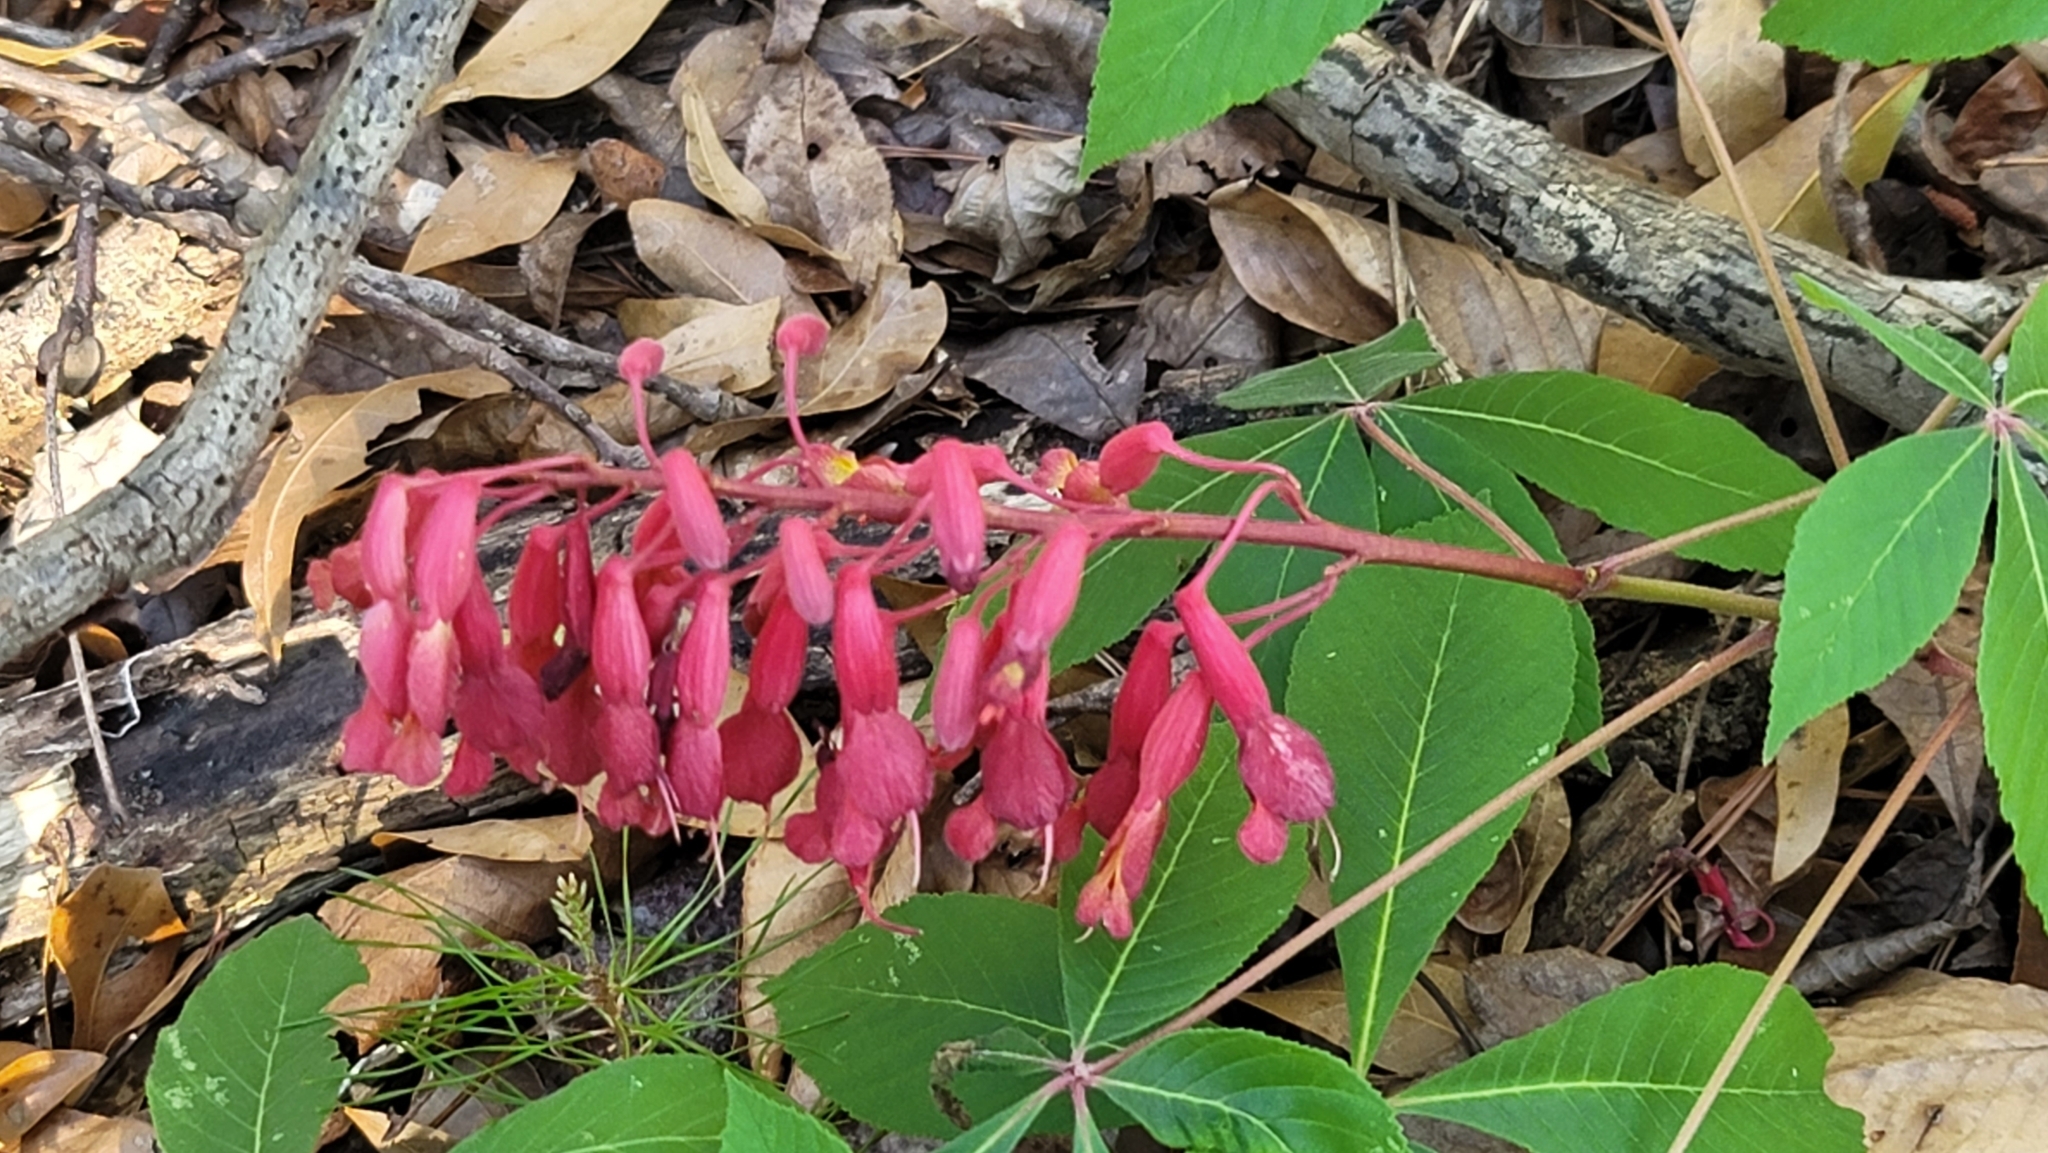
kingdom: Plantae
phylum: Tracheophyta
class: Magnoliopsida
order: Sapindales
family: Sapindaceae
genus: Aesculus
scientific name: Aesculus pavia
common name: Red buckeye
